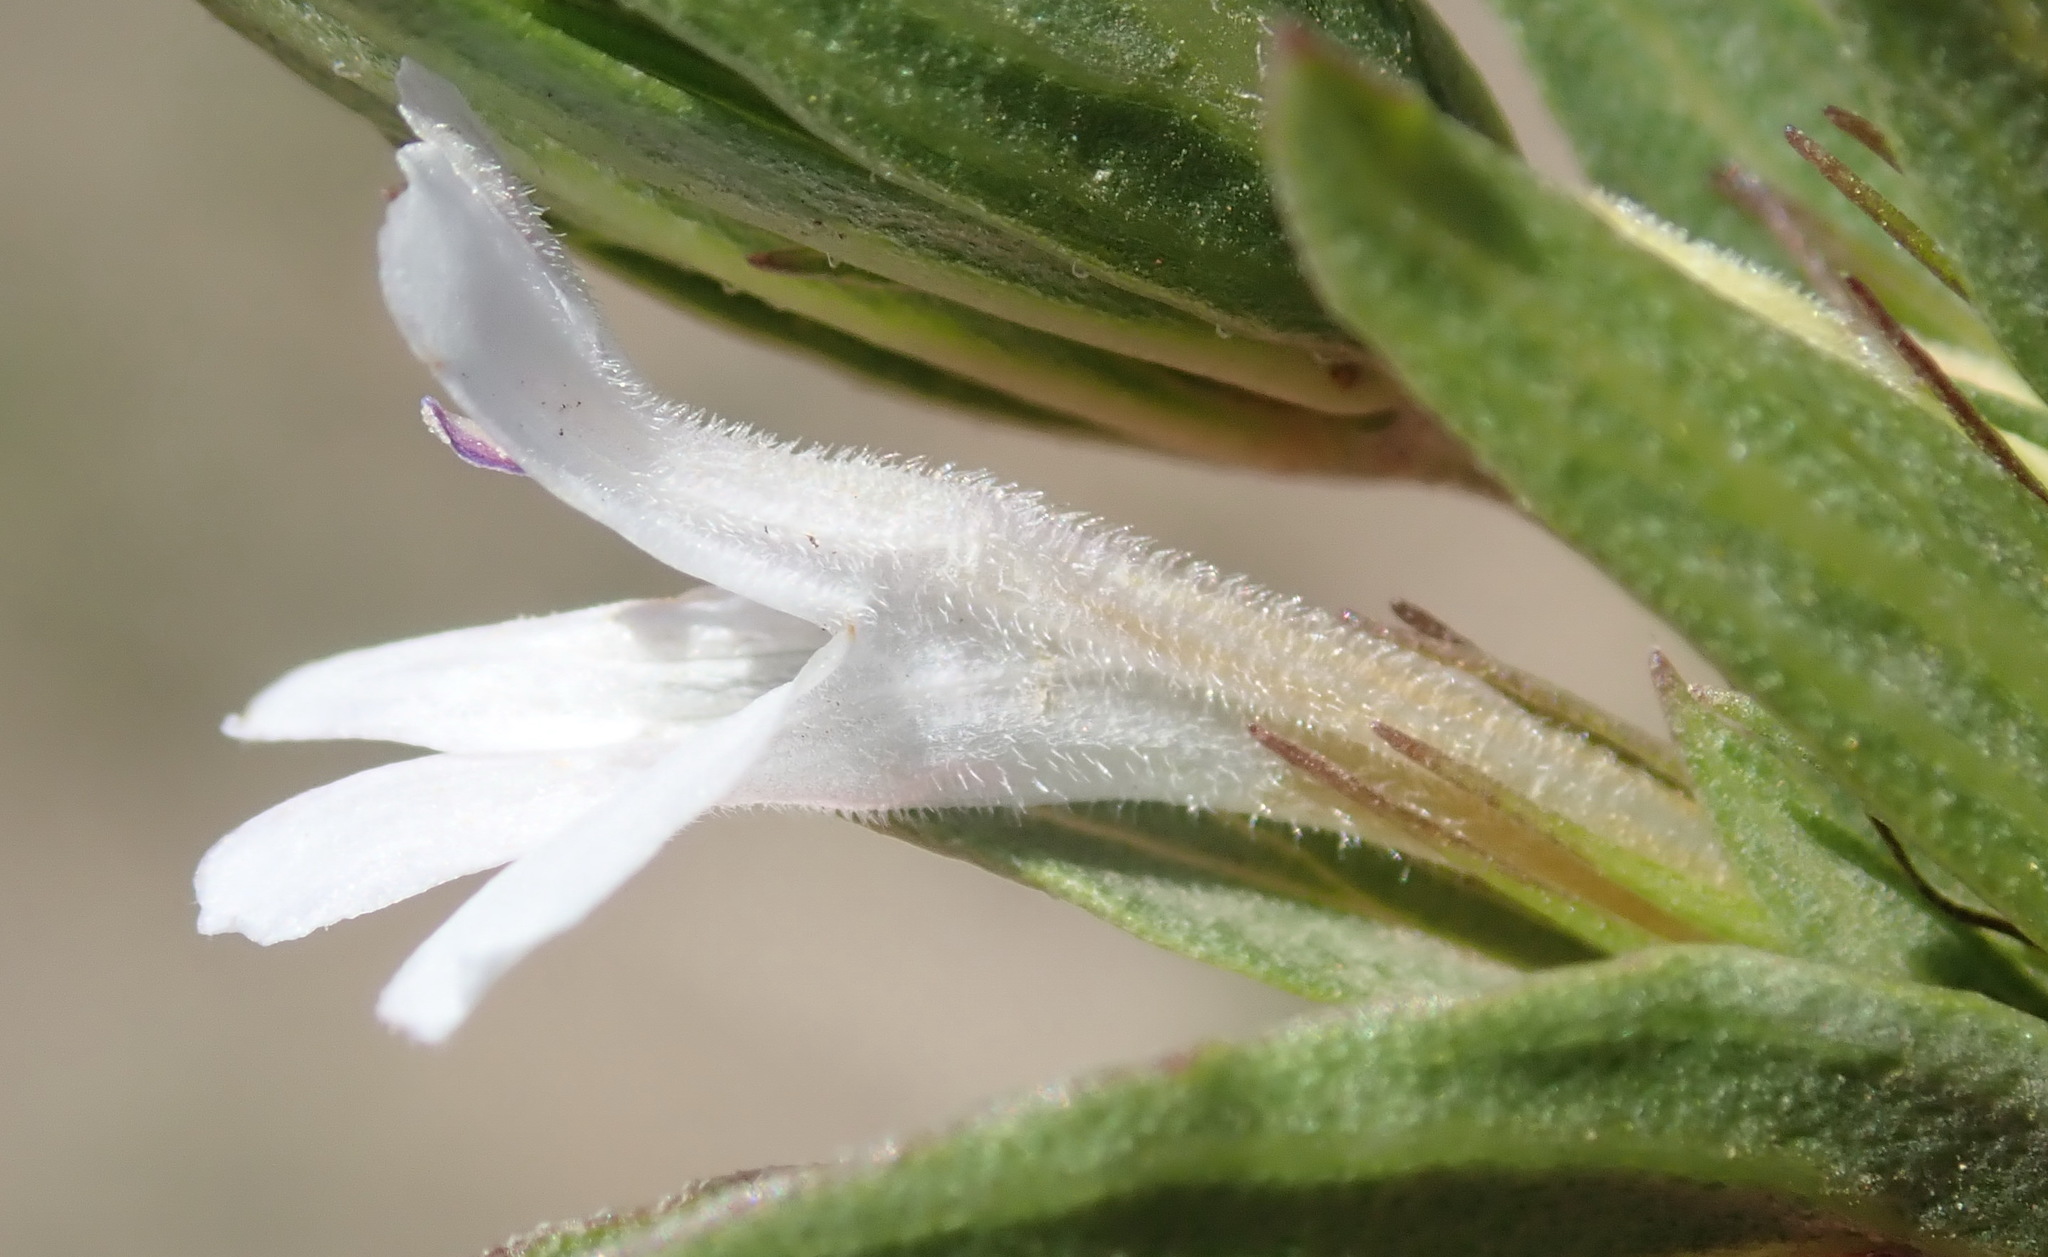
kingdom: Plantae
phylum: Tracheophyta
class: Magnoliopsida
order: Lamiales
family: Acanthaceae
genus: Dyschoriste
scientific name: Dyschoriste costata
